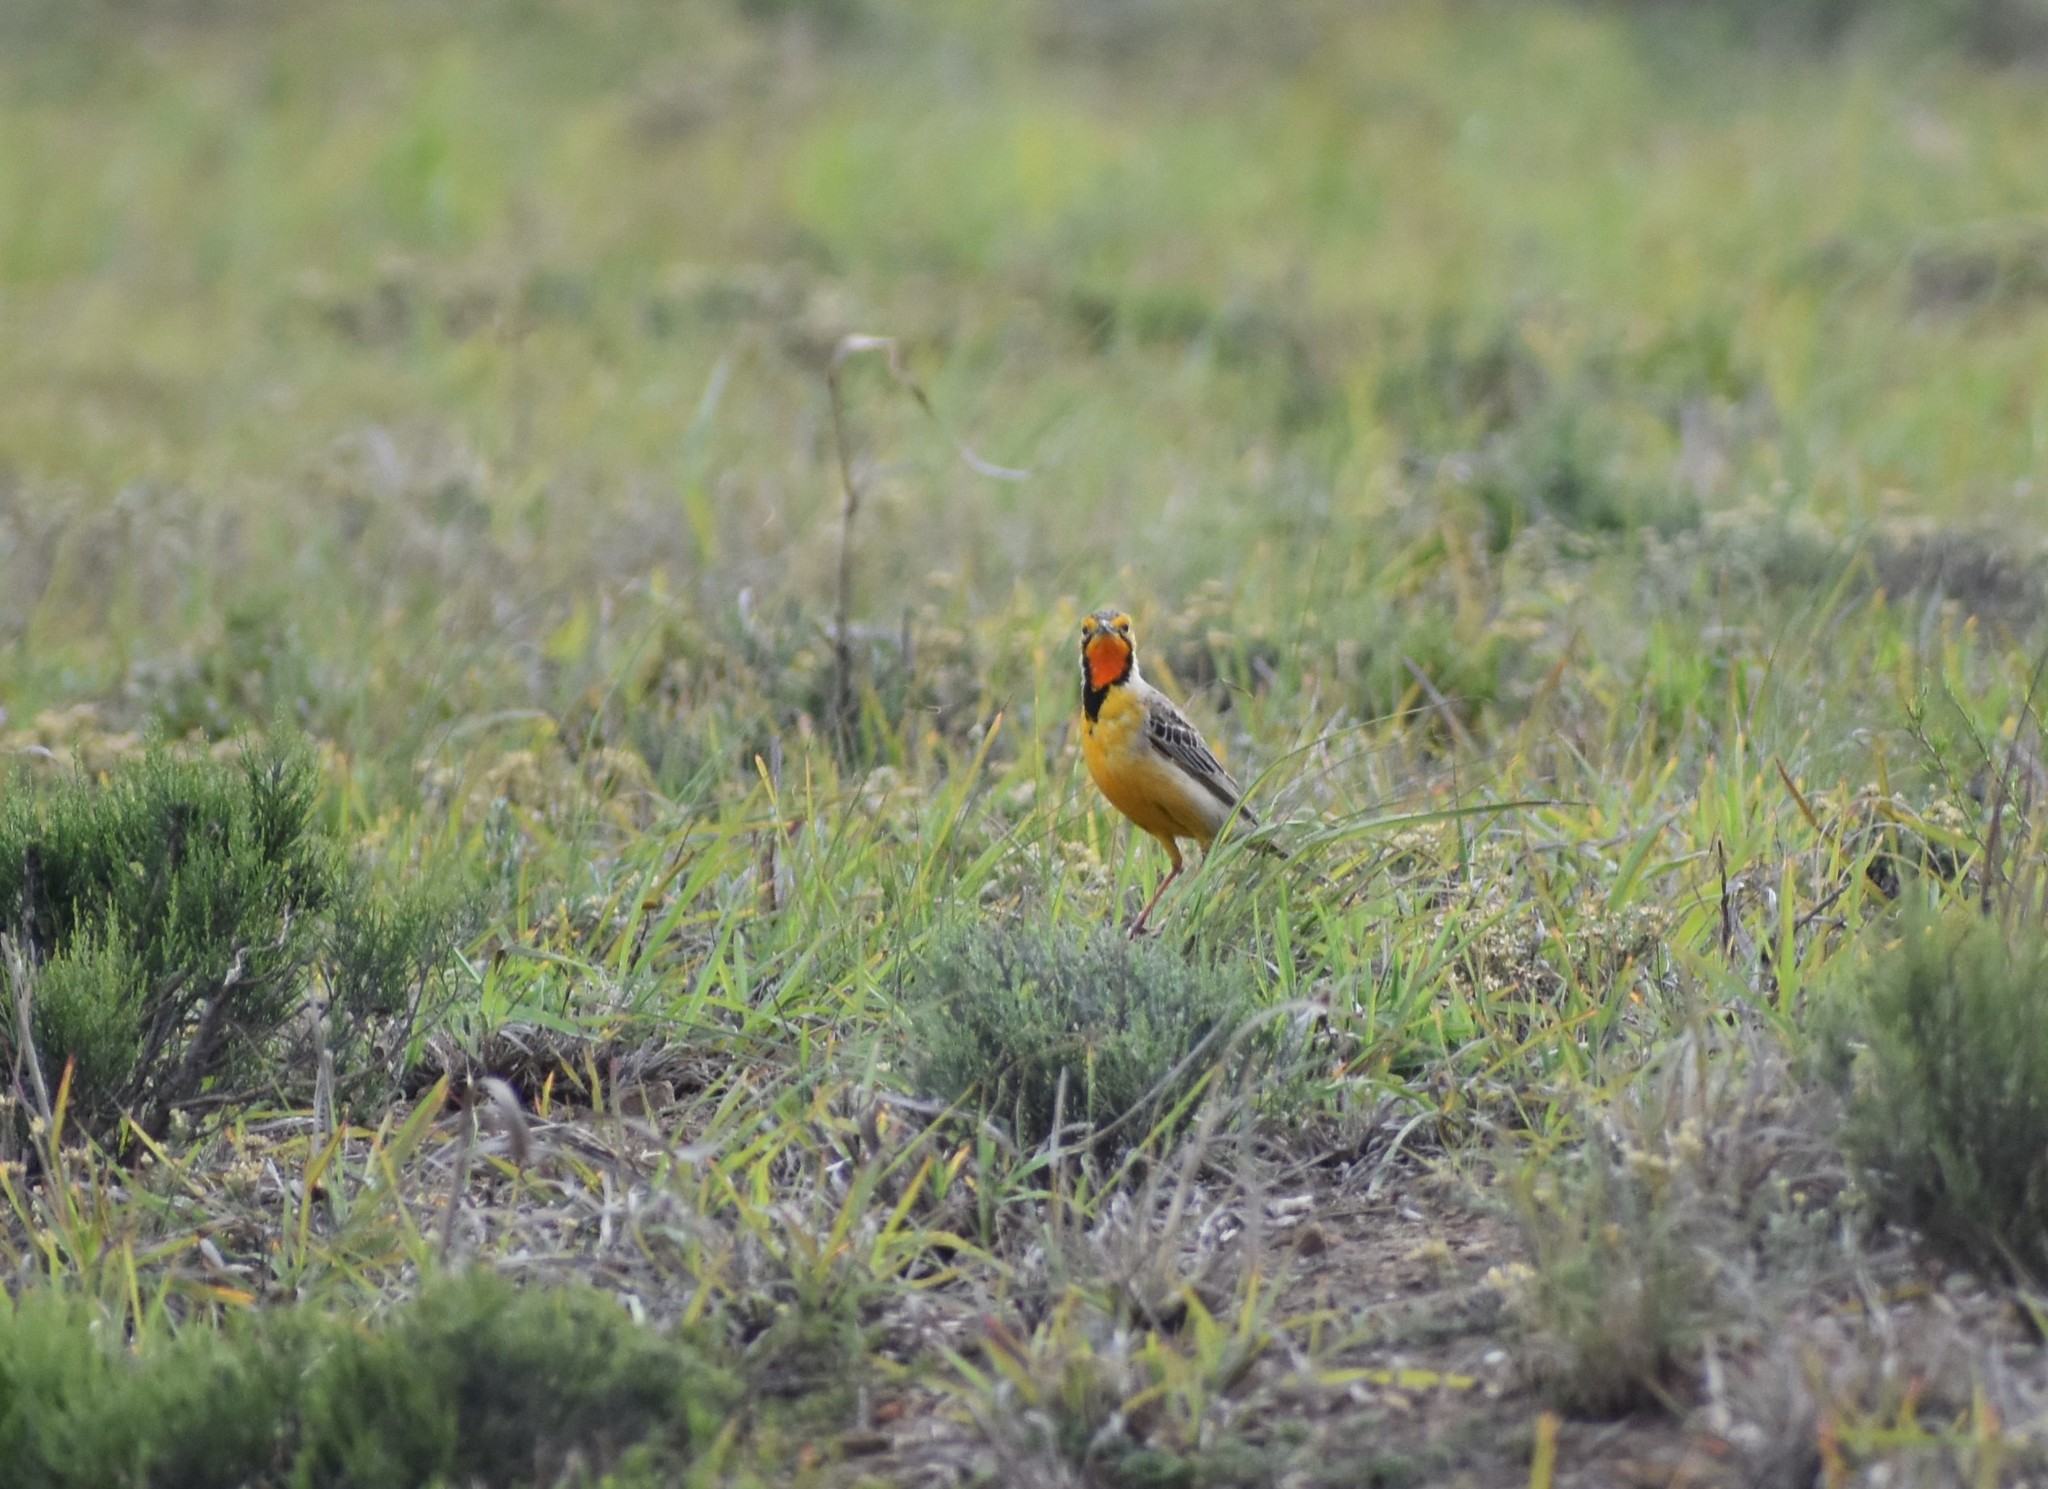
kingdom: Animalia
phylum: Chordata
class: Aves
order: Passeriformes
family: Motacillidae
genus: Macronyx
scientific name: Macronyx capensis
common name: Cape longclaw
